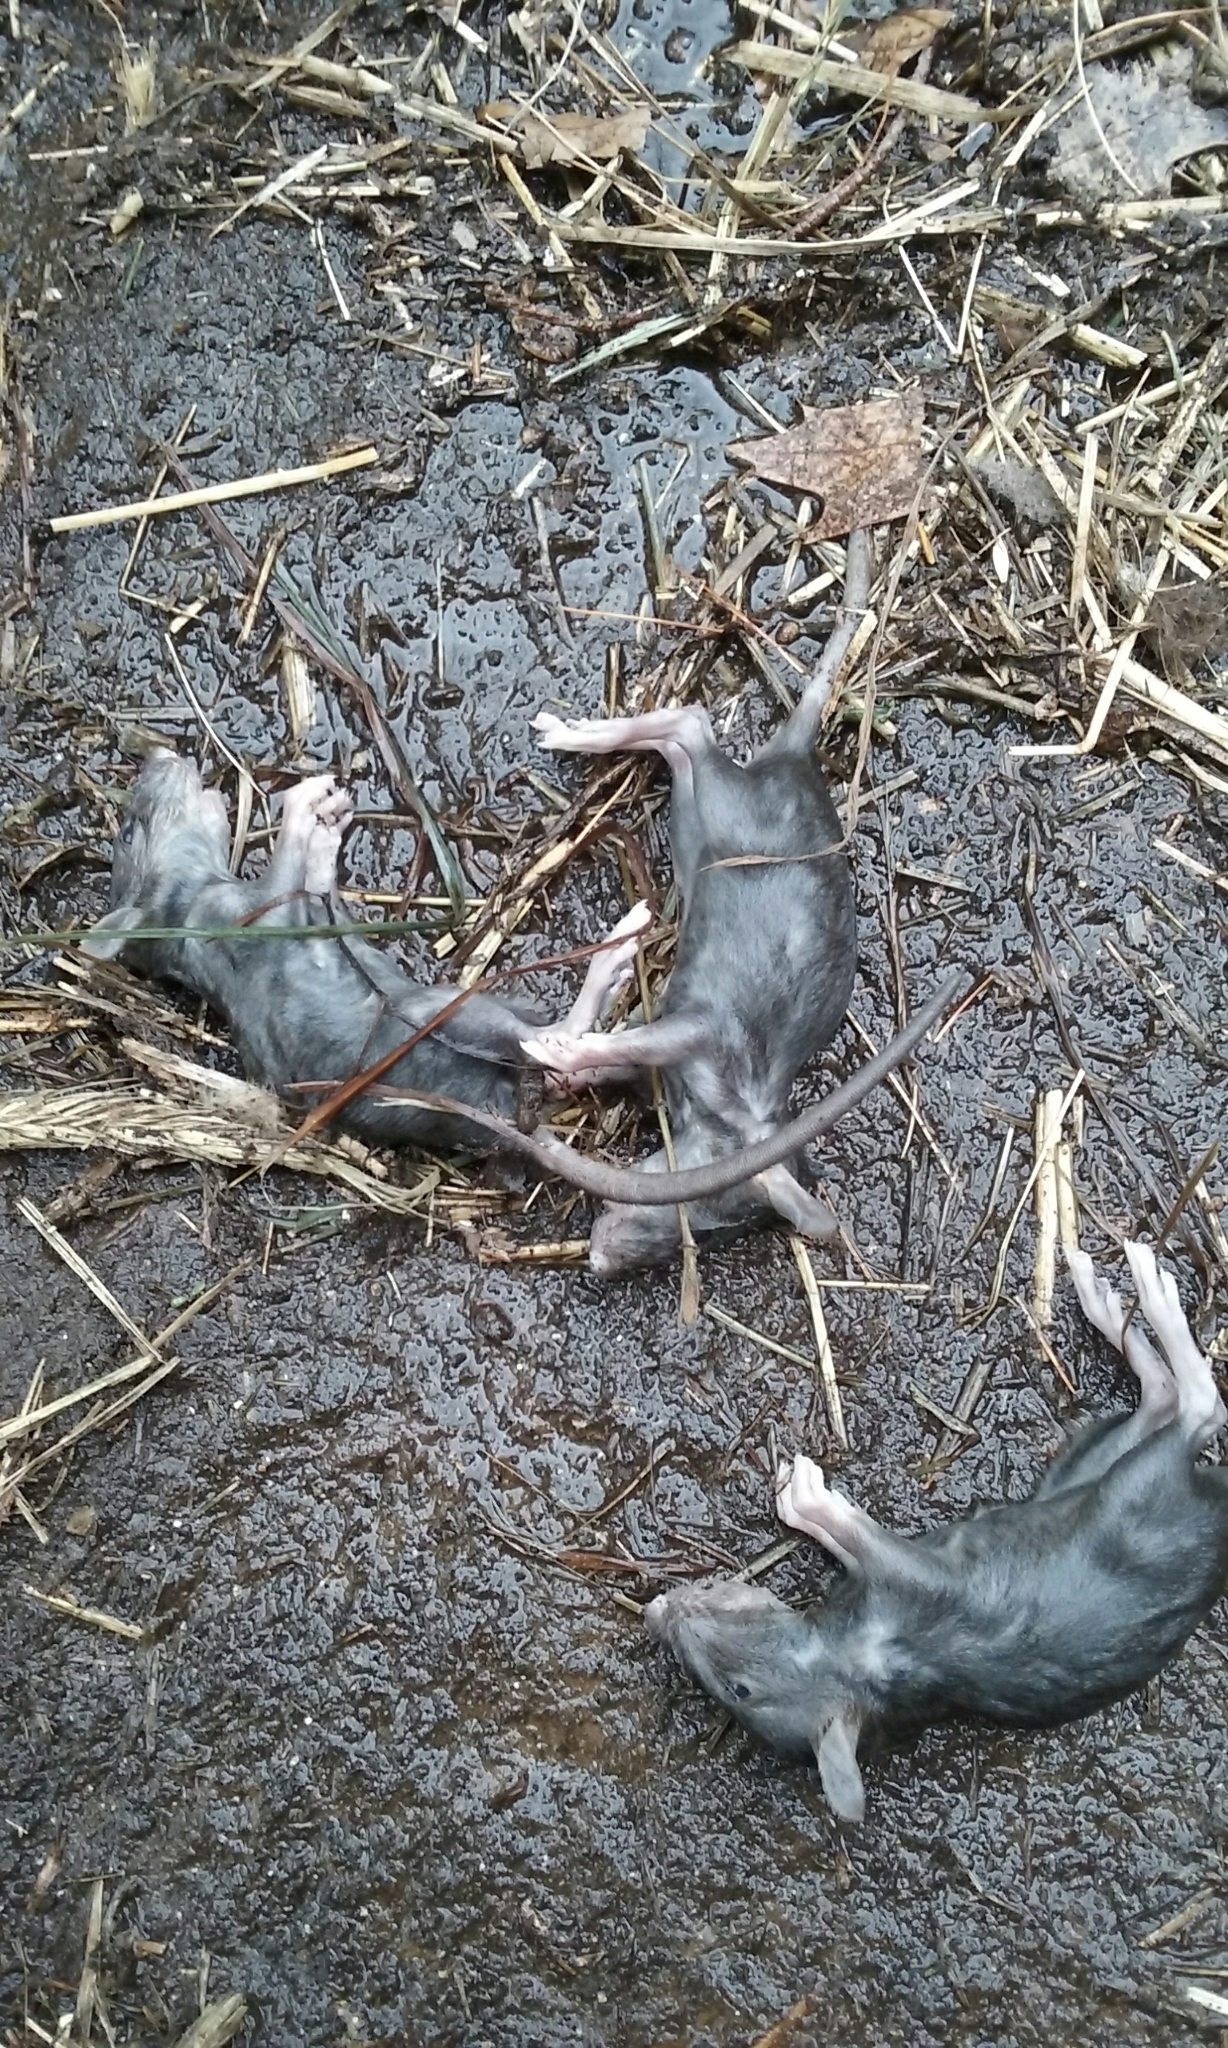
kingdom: Animalia
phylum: Chordata
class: Mammalia
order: Rodentia
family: Muridae
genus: Rattus
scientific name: Rattus norvegicus
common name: Brown rat
